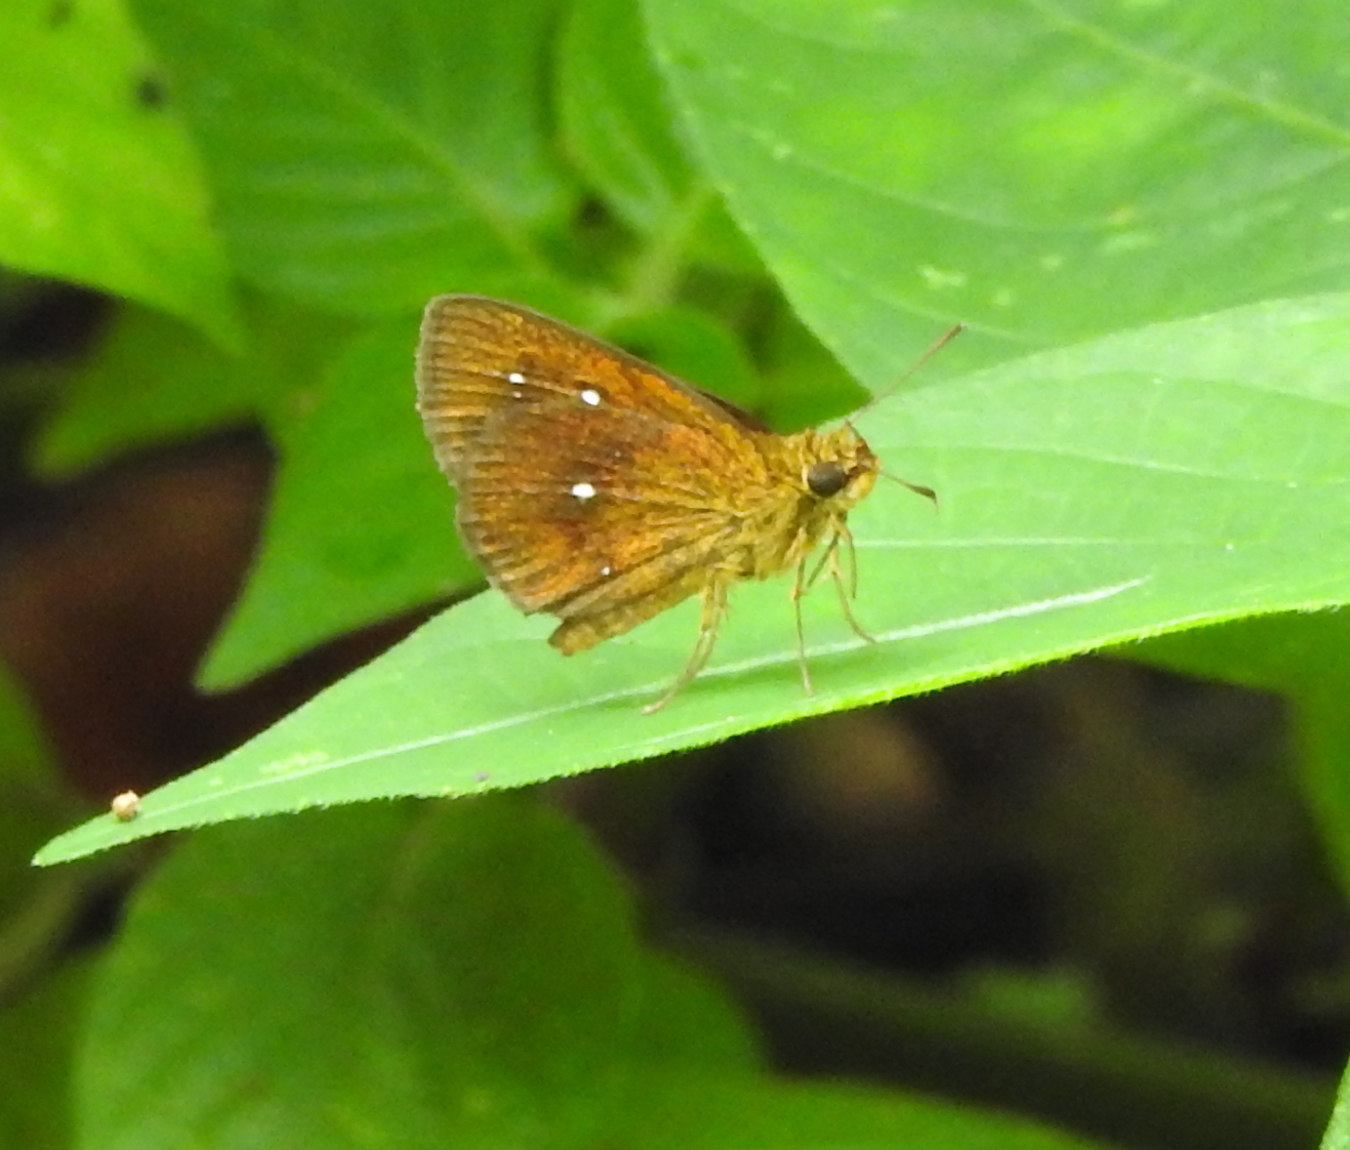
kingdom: Animalia
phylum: Arthropoda
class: Insecta
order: Lepidoptera
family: Hesperiidae
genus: Iambrix
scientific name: Iambrix salsala
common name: Chestnut bob
